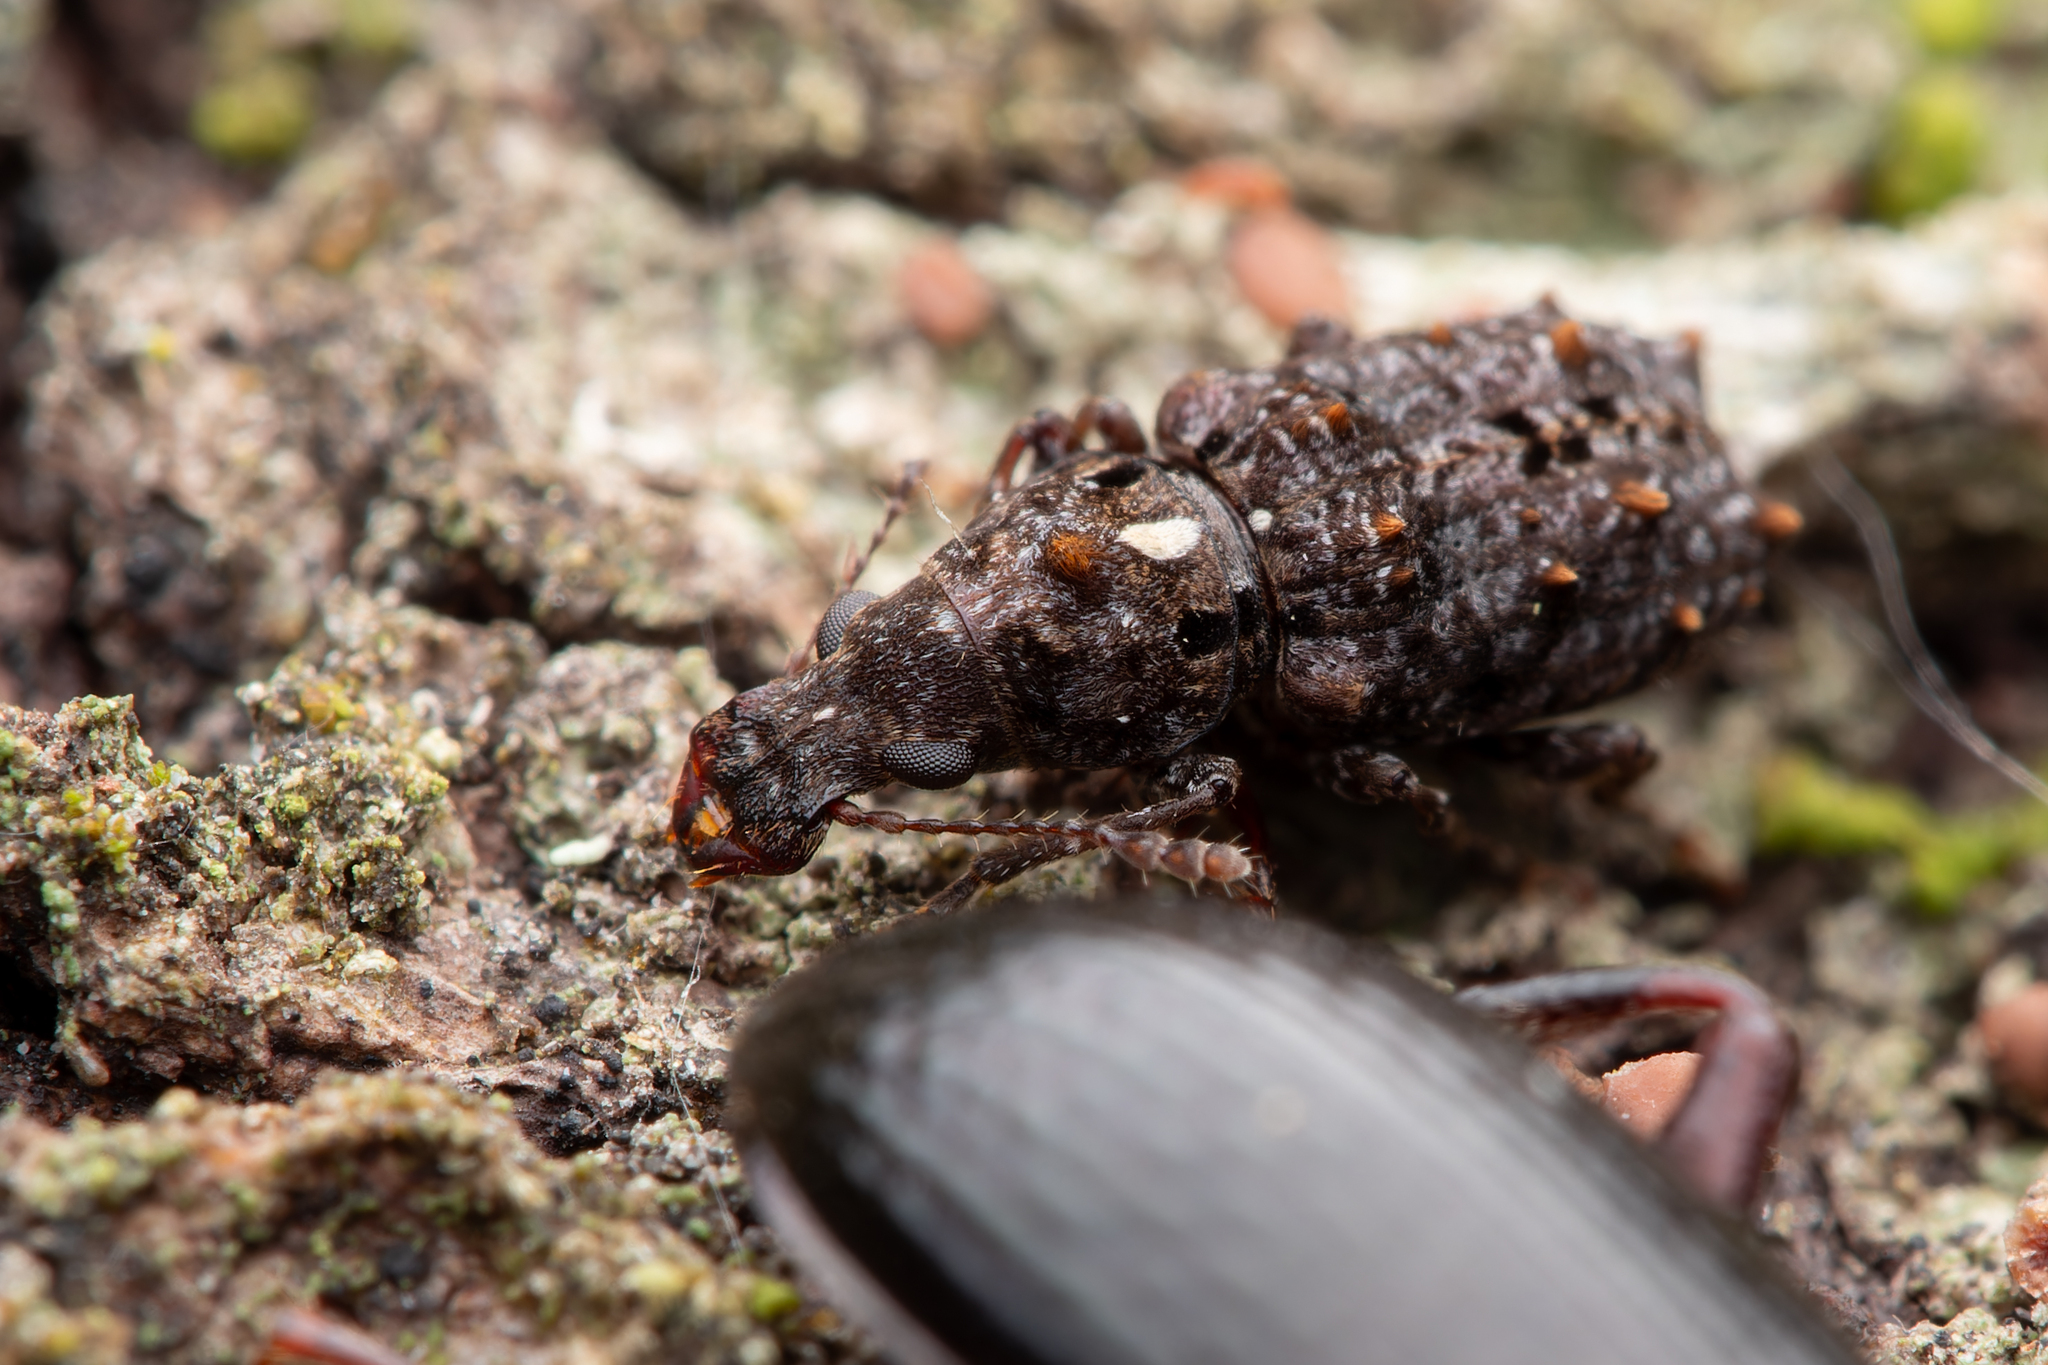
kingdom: Animalia
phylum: Arthropoda
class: Insecta
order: Coleoptera
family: Anthribidae
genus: Lophus
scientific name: Lophus
